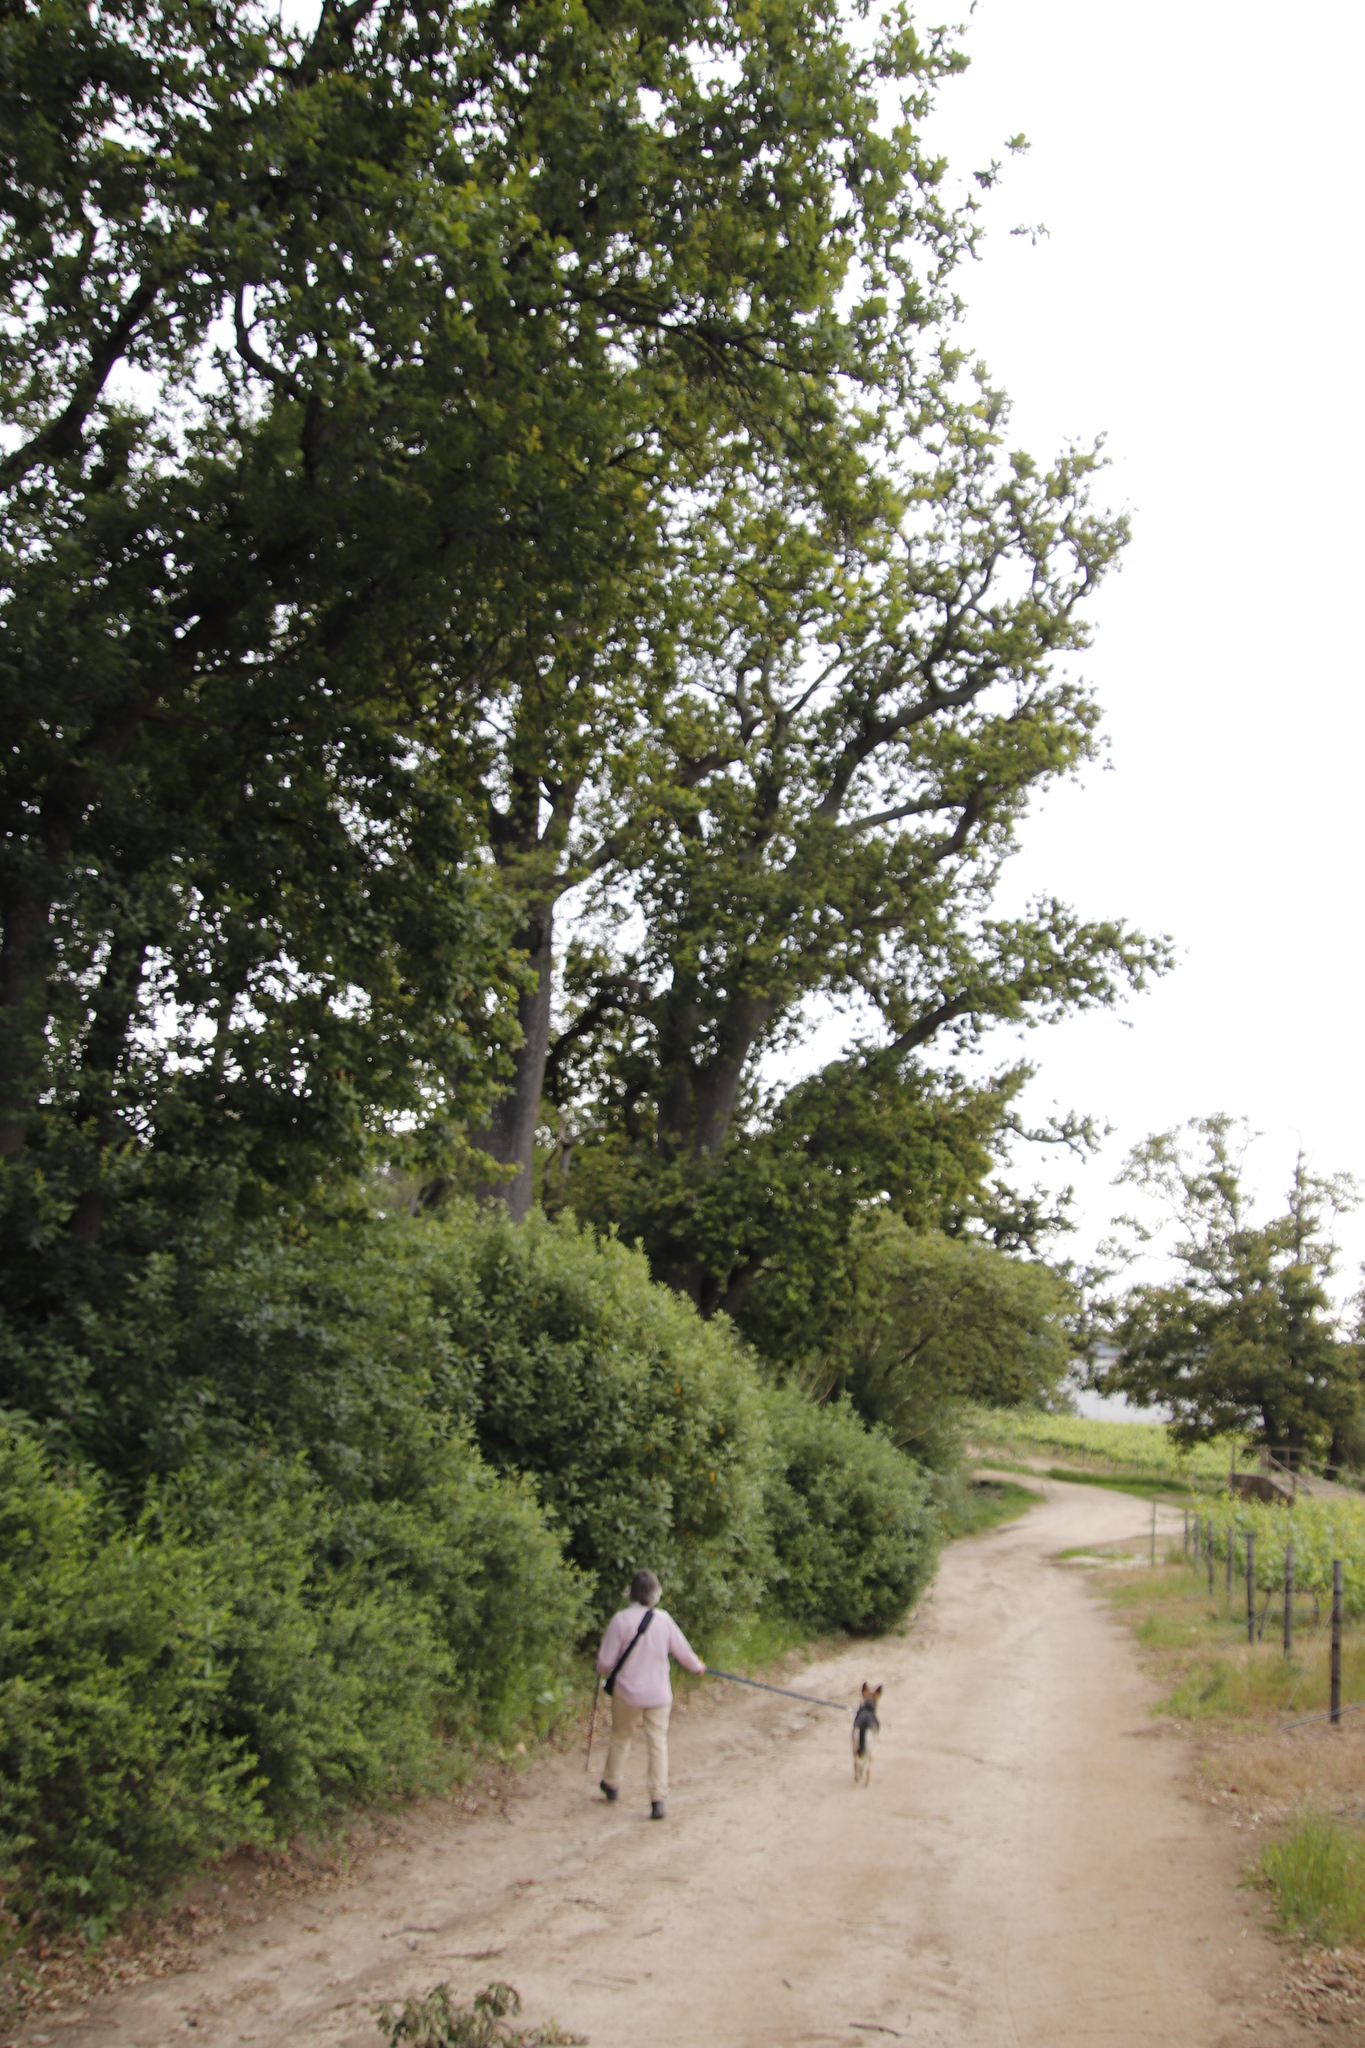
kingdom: Plantae
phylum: Tracheophyta
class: Magnoliopsida
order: Fagales
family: Fagaceae
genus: Quercus
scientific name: Quercus robur
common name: Pedunculate oak
